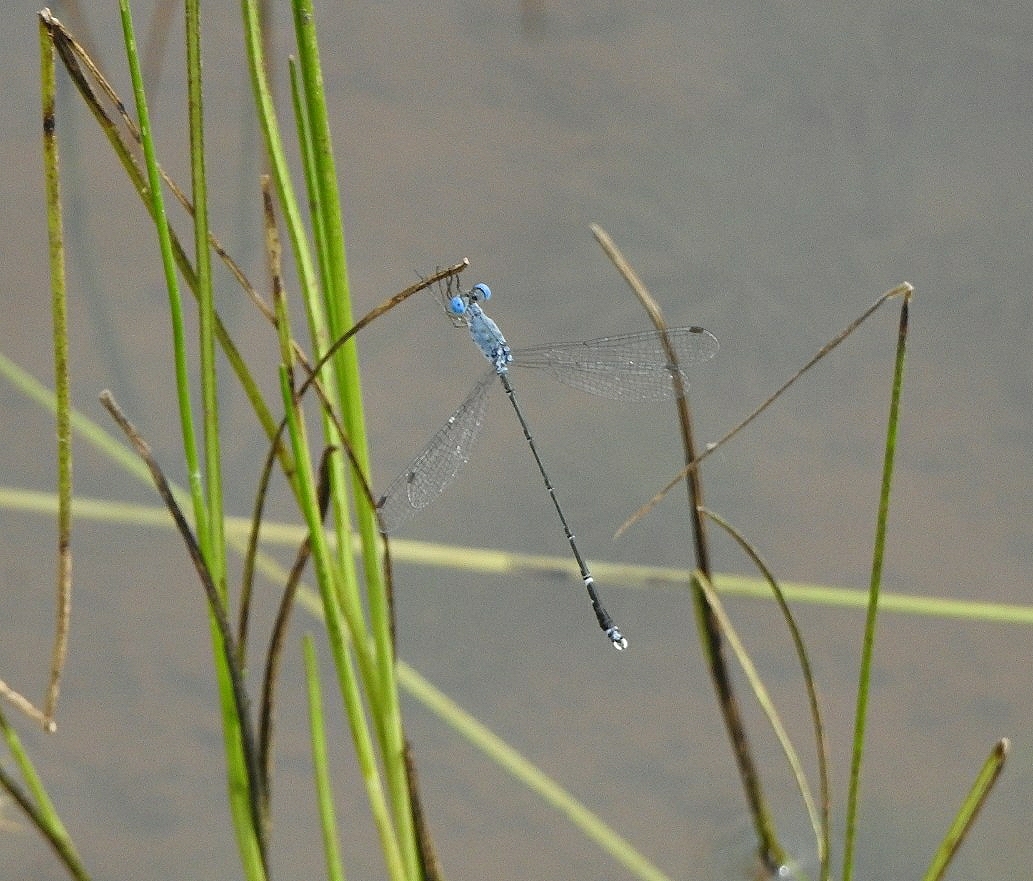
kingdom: Animalia
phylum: Arthropoda
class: Insecta
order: Odonata
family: Lestidae
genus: Lestes
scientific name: Lestes praemorsus
